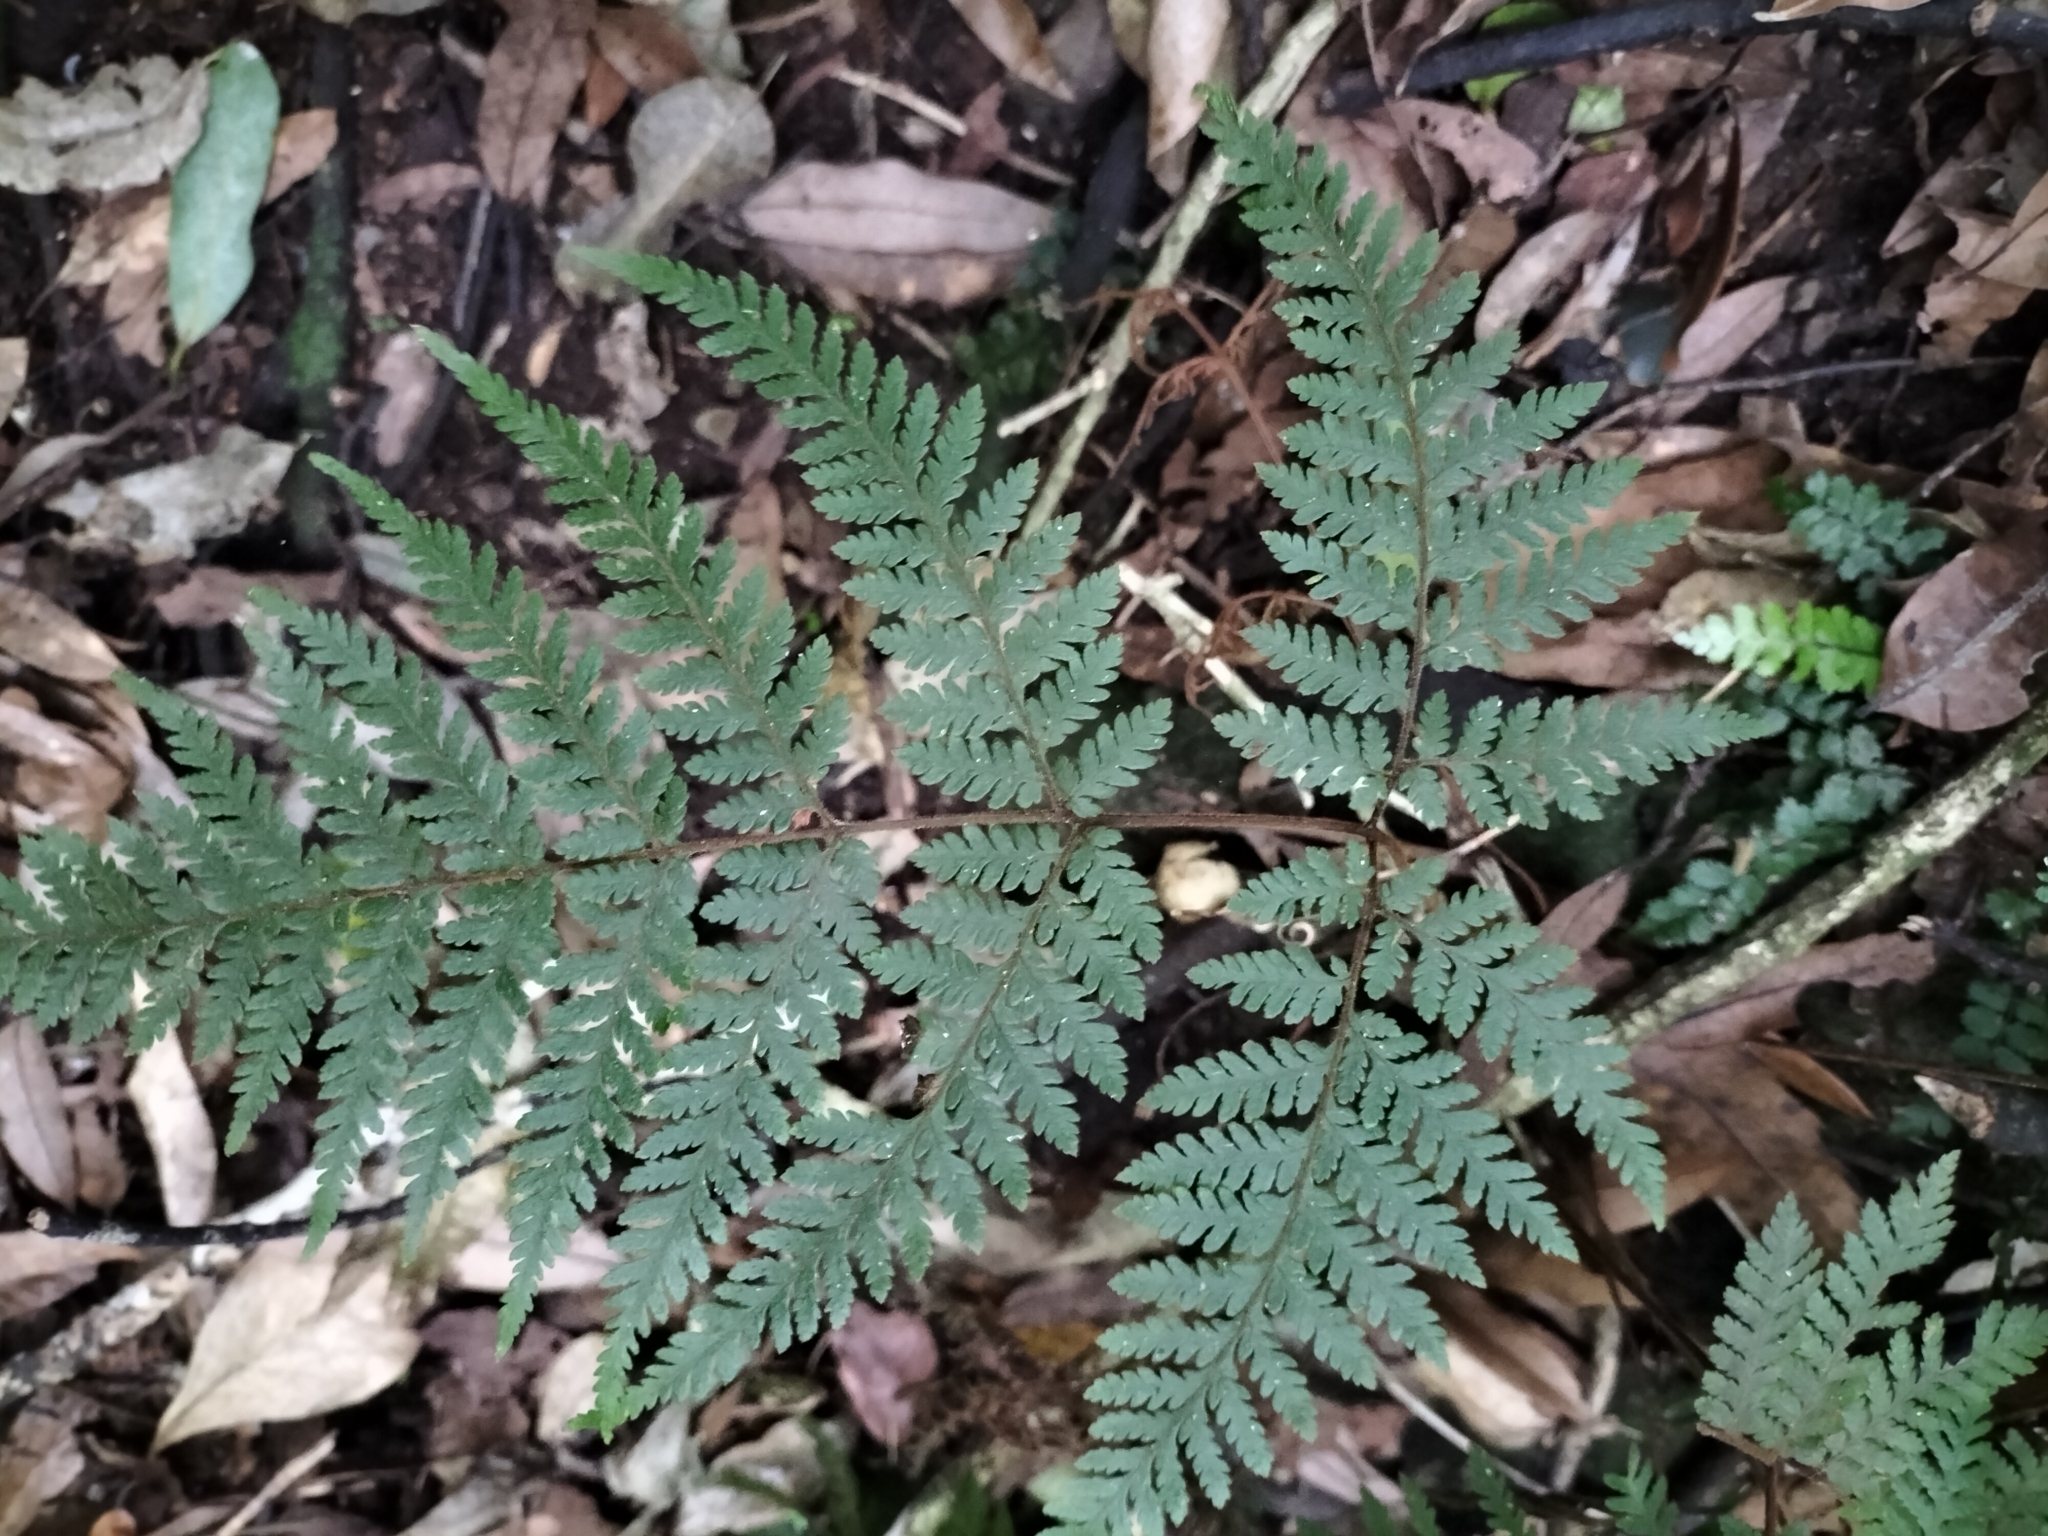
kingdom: Plantae
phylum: Tracheophyta
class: Polypodiopsida
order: Polypodiales
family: Dryopteridaceae
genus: Lastreopsis
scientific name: Lastreopsis velutina
